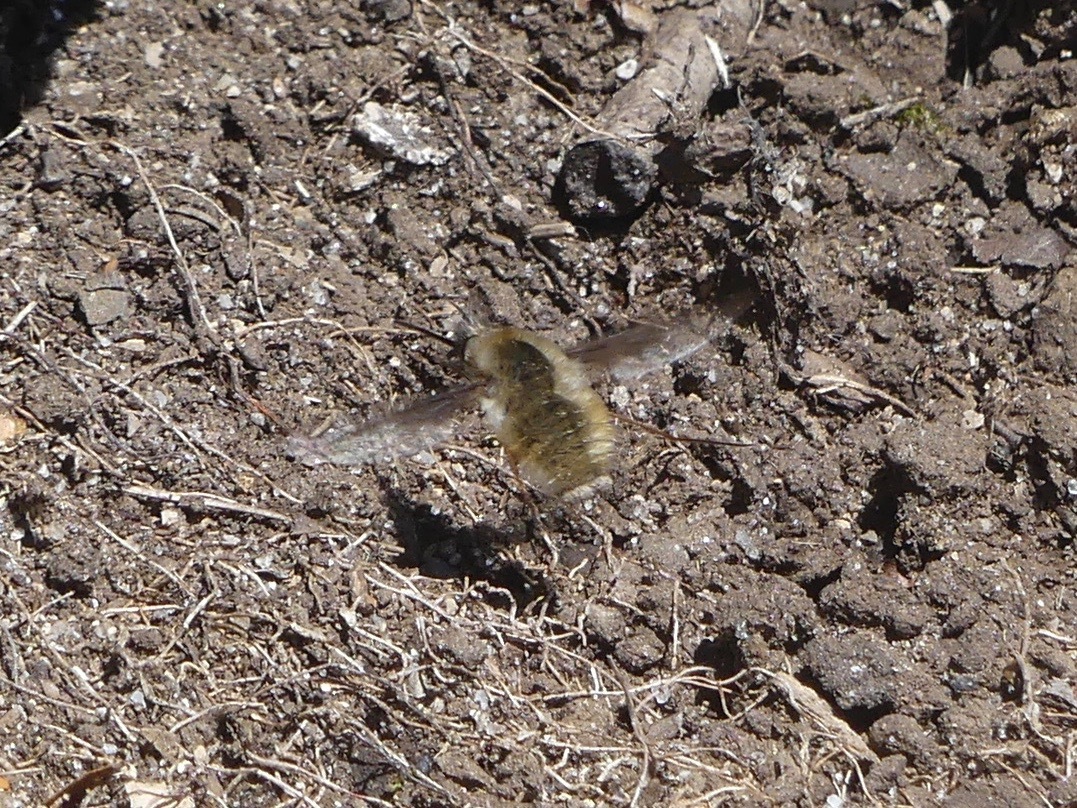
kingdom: Animalia
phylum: Arthropoda
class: Insecta
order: Diptera
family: Bombyliidae
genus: Bombylius
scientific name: Bombylius major
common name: Bee fly
